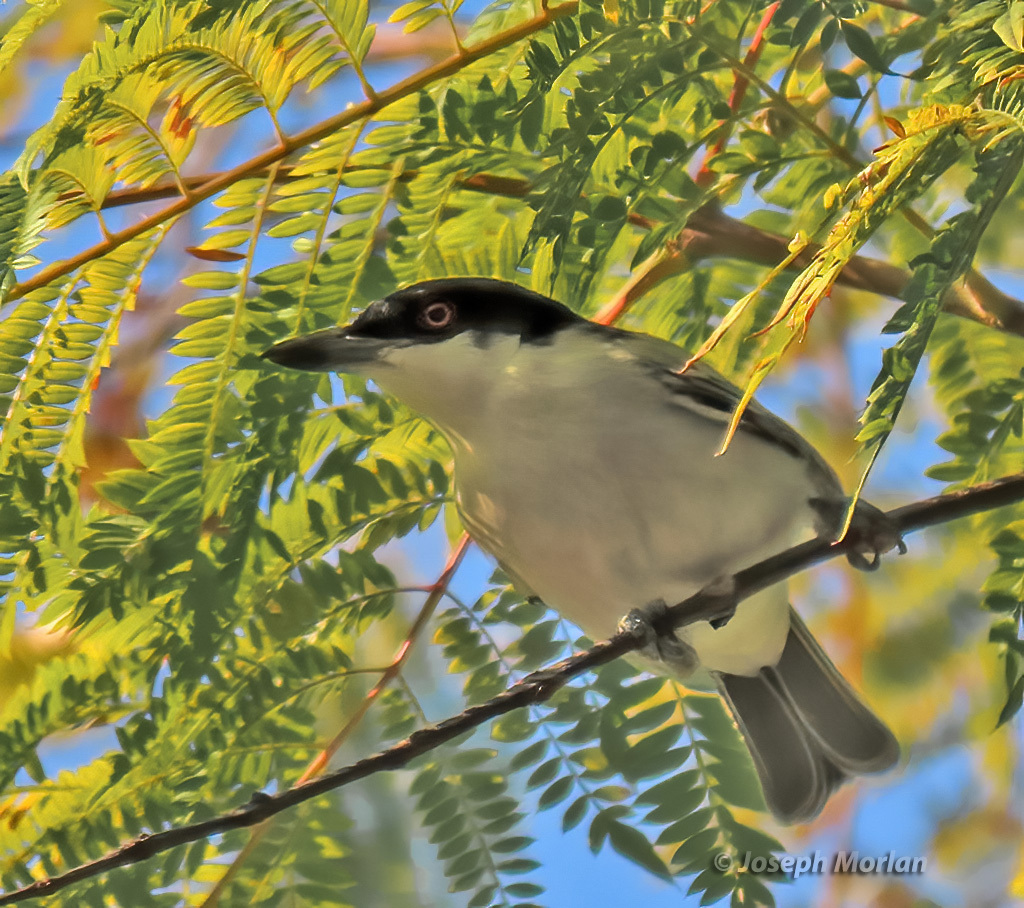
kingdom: Animalia
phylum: Chordata
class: Aves
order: Passeriformes
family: Malaconotidae
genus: Dryoscopus
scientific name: Dryoscopus cubla
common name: Black-backed puffback
